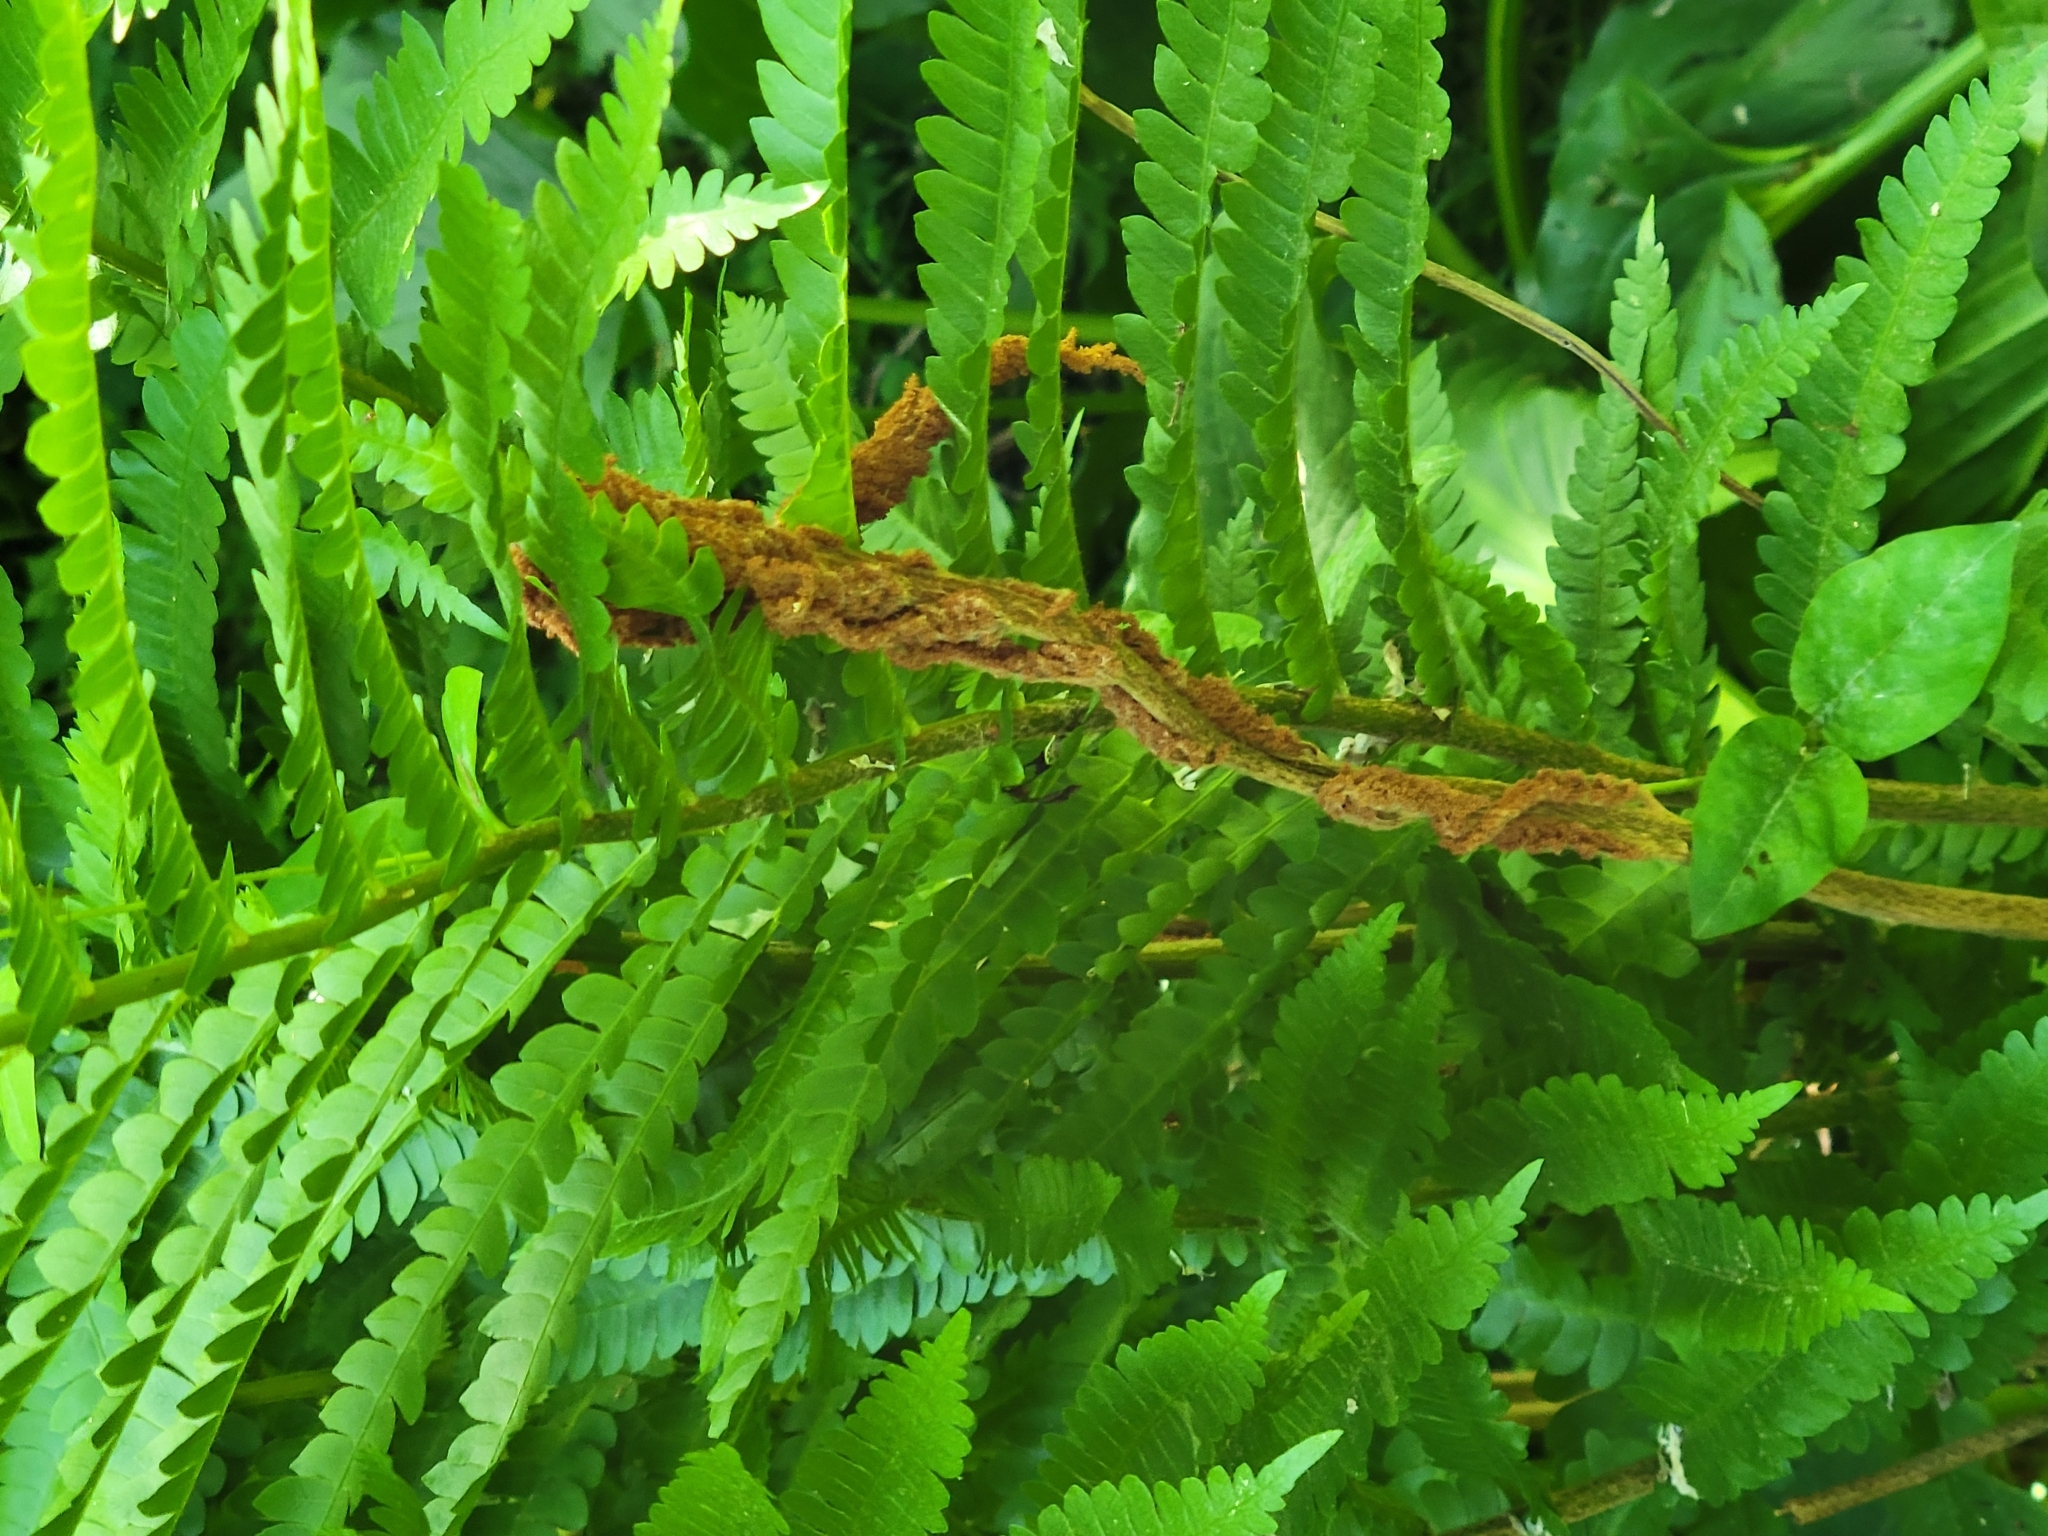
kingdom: Plantae
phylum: Tracheophyta
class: Polypodiopsida
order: Osmundales
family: Osmundaceae
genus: Osmundastrum
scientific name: Osmundastrum cinnamomeum
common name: Cinnamon fern
